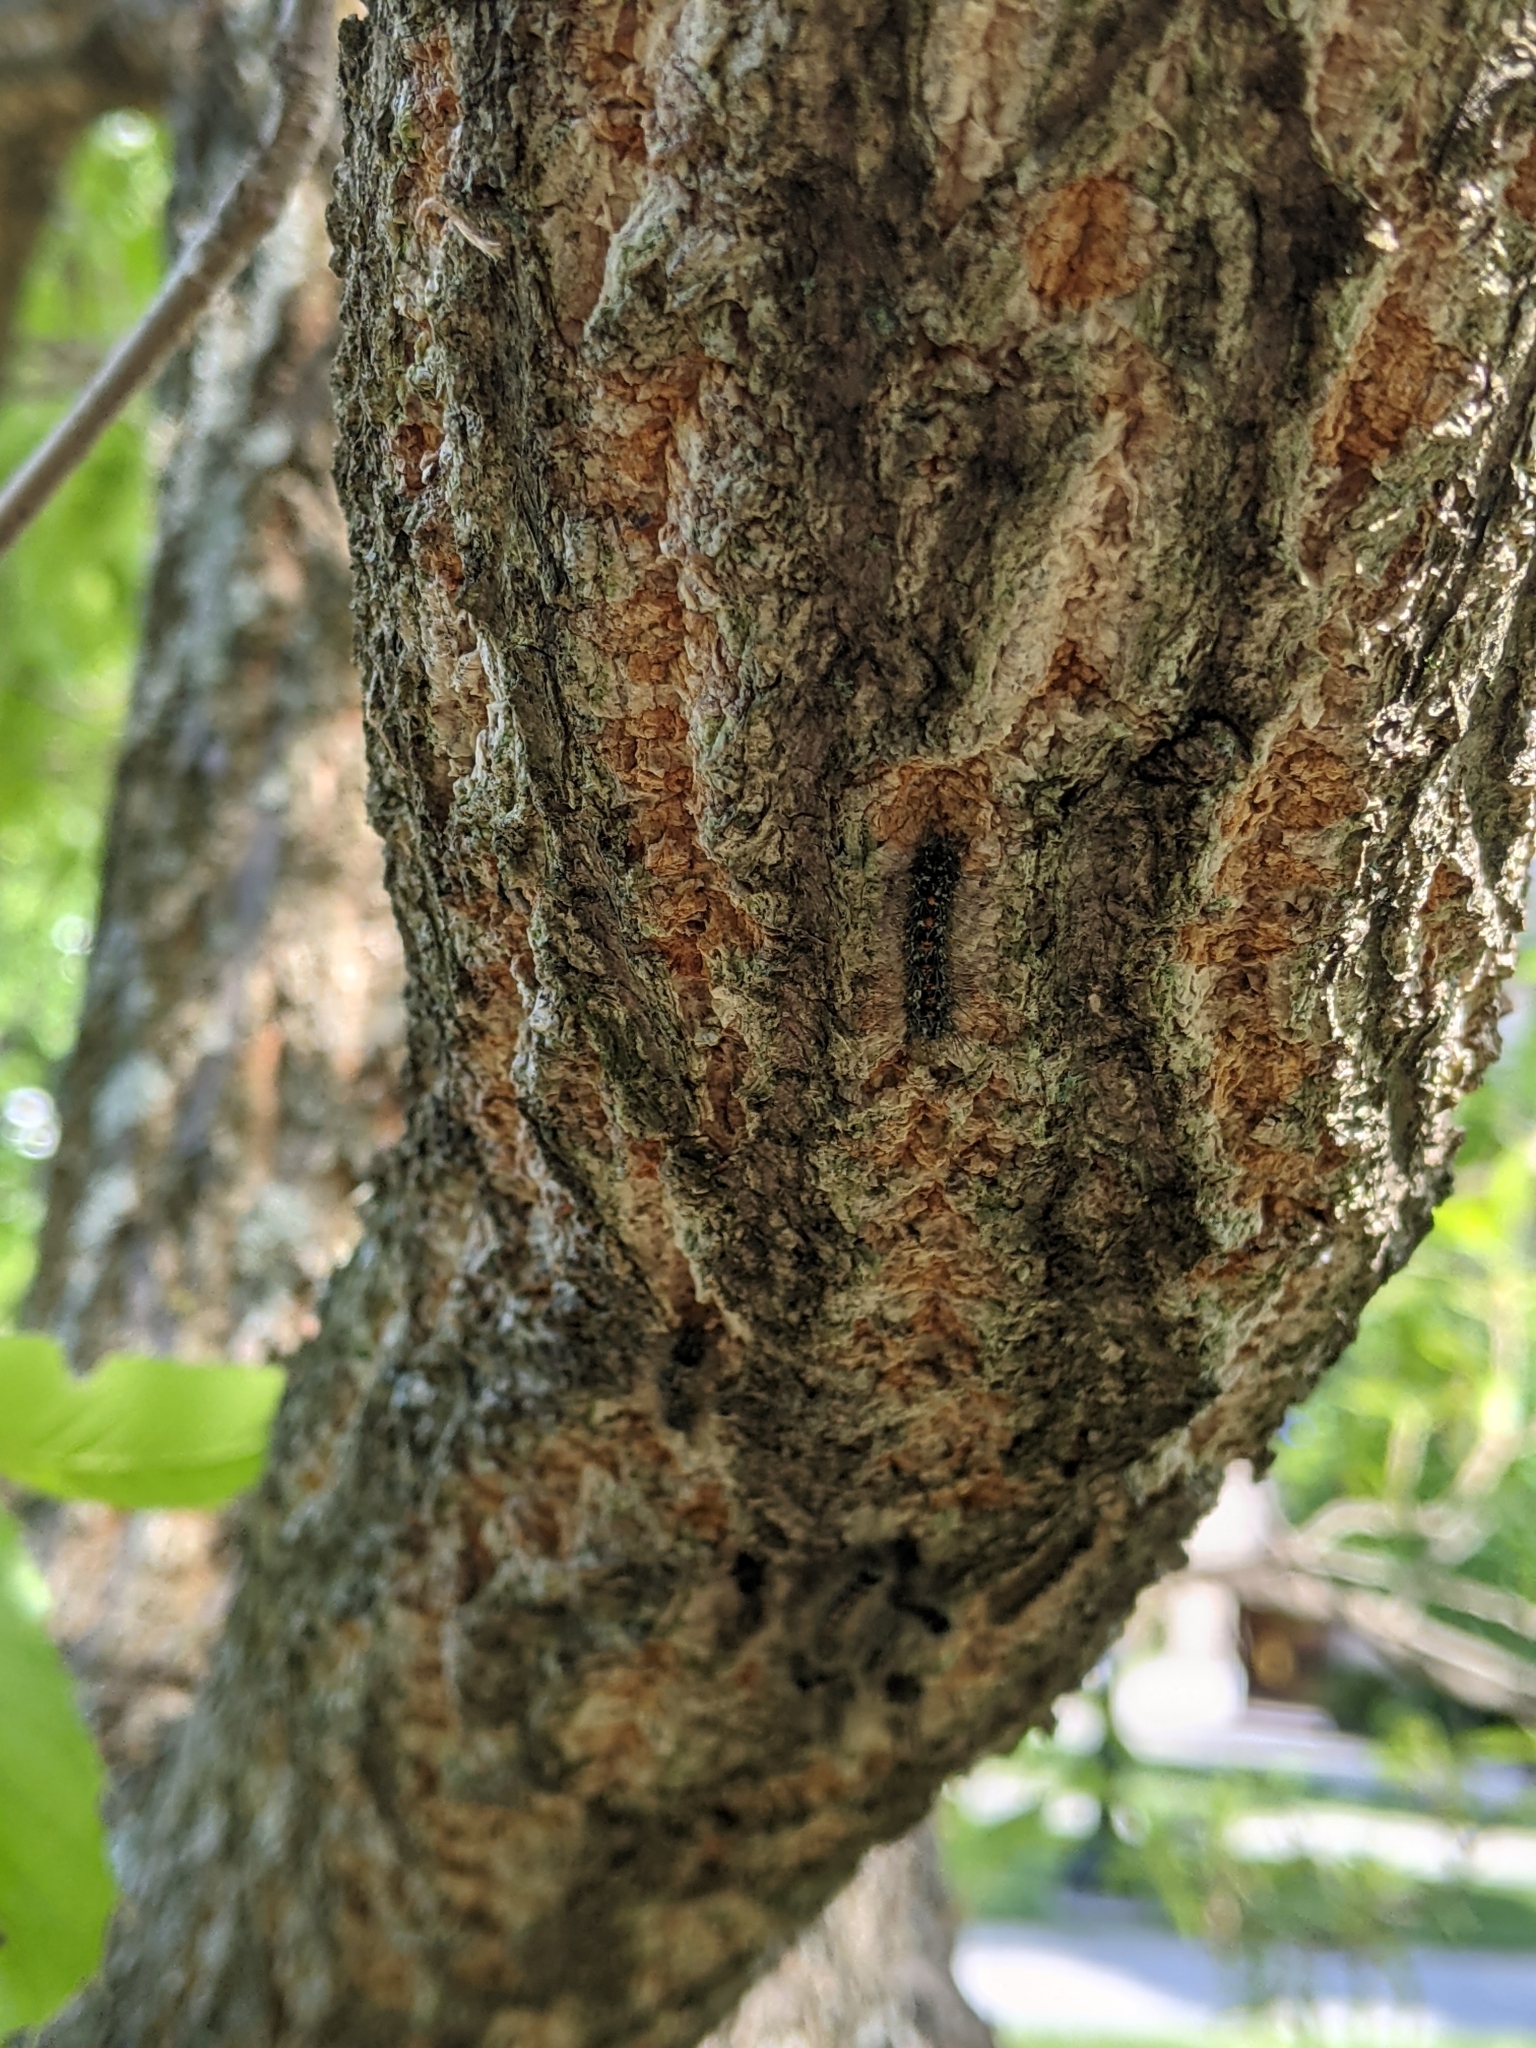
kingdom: Animalia
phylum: Arthropoda
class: Insecta
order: Lepidoptera
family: Erebidae
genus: Lymantria
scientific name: Lymantria dispar
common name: Gypsy moth
